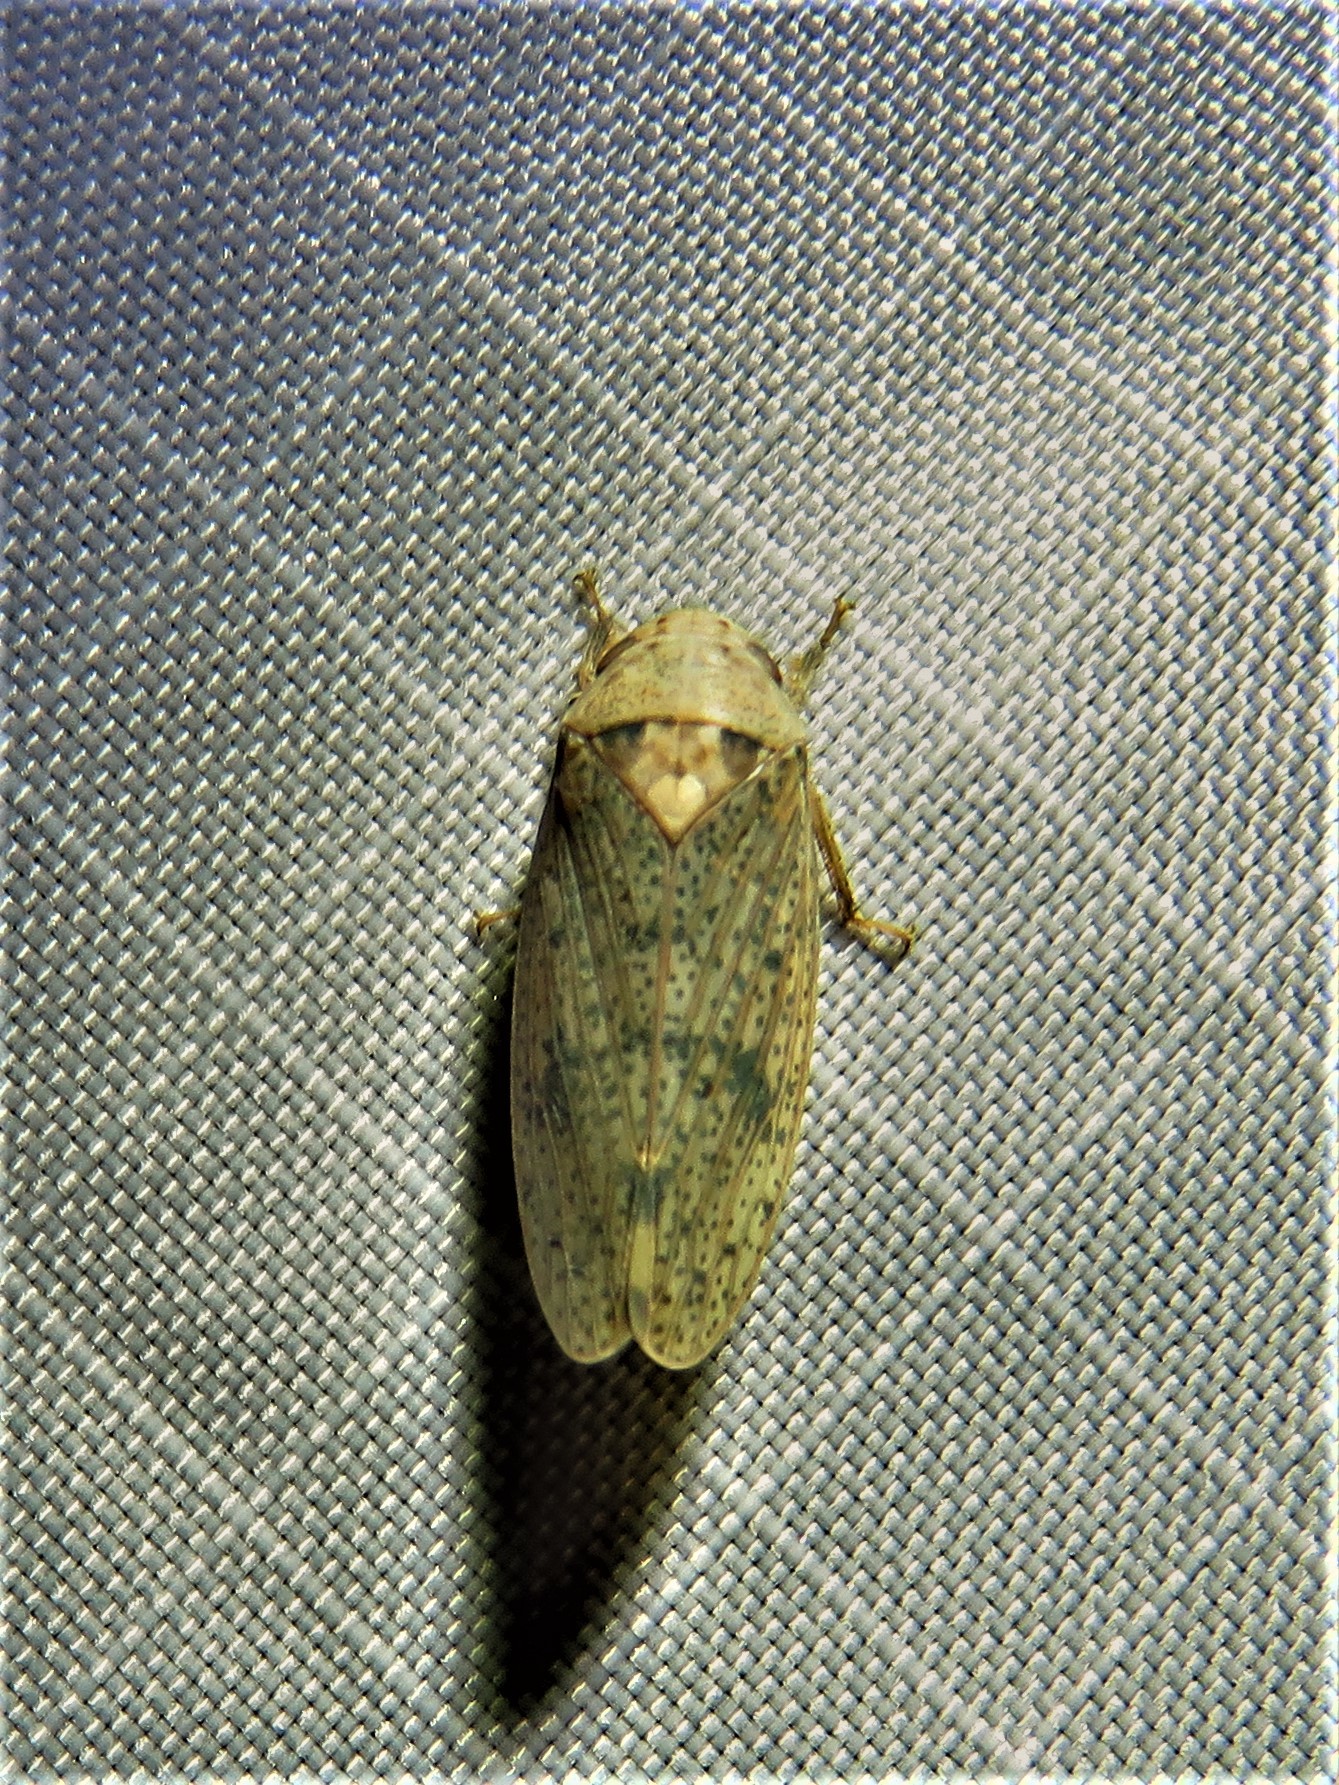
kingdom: Animalia
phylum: Arthropoda
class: Insecta
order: Hemiptera
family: Cicadellidae
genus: Ponana
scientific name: Ponana puncticollis
